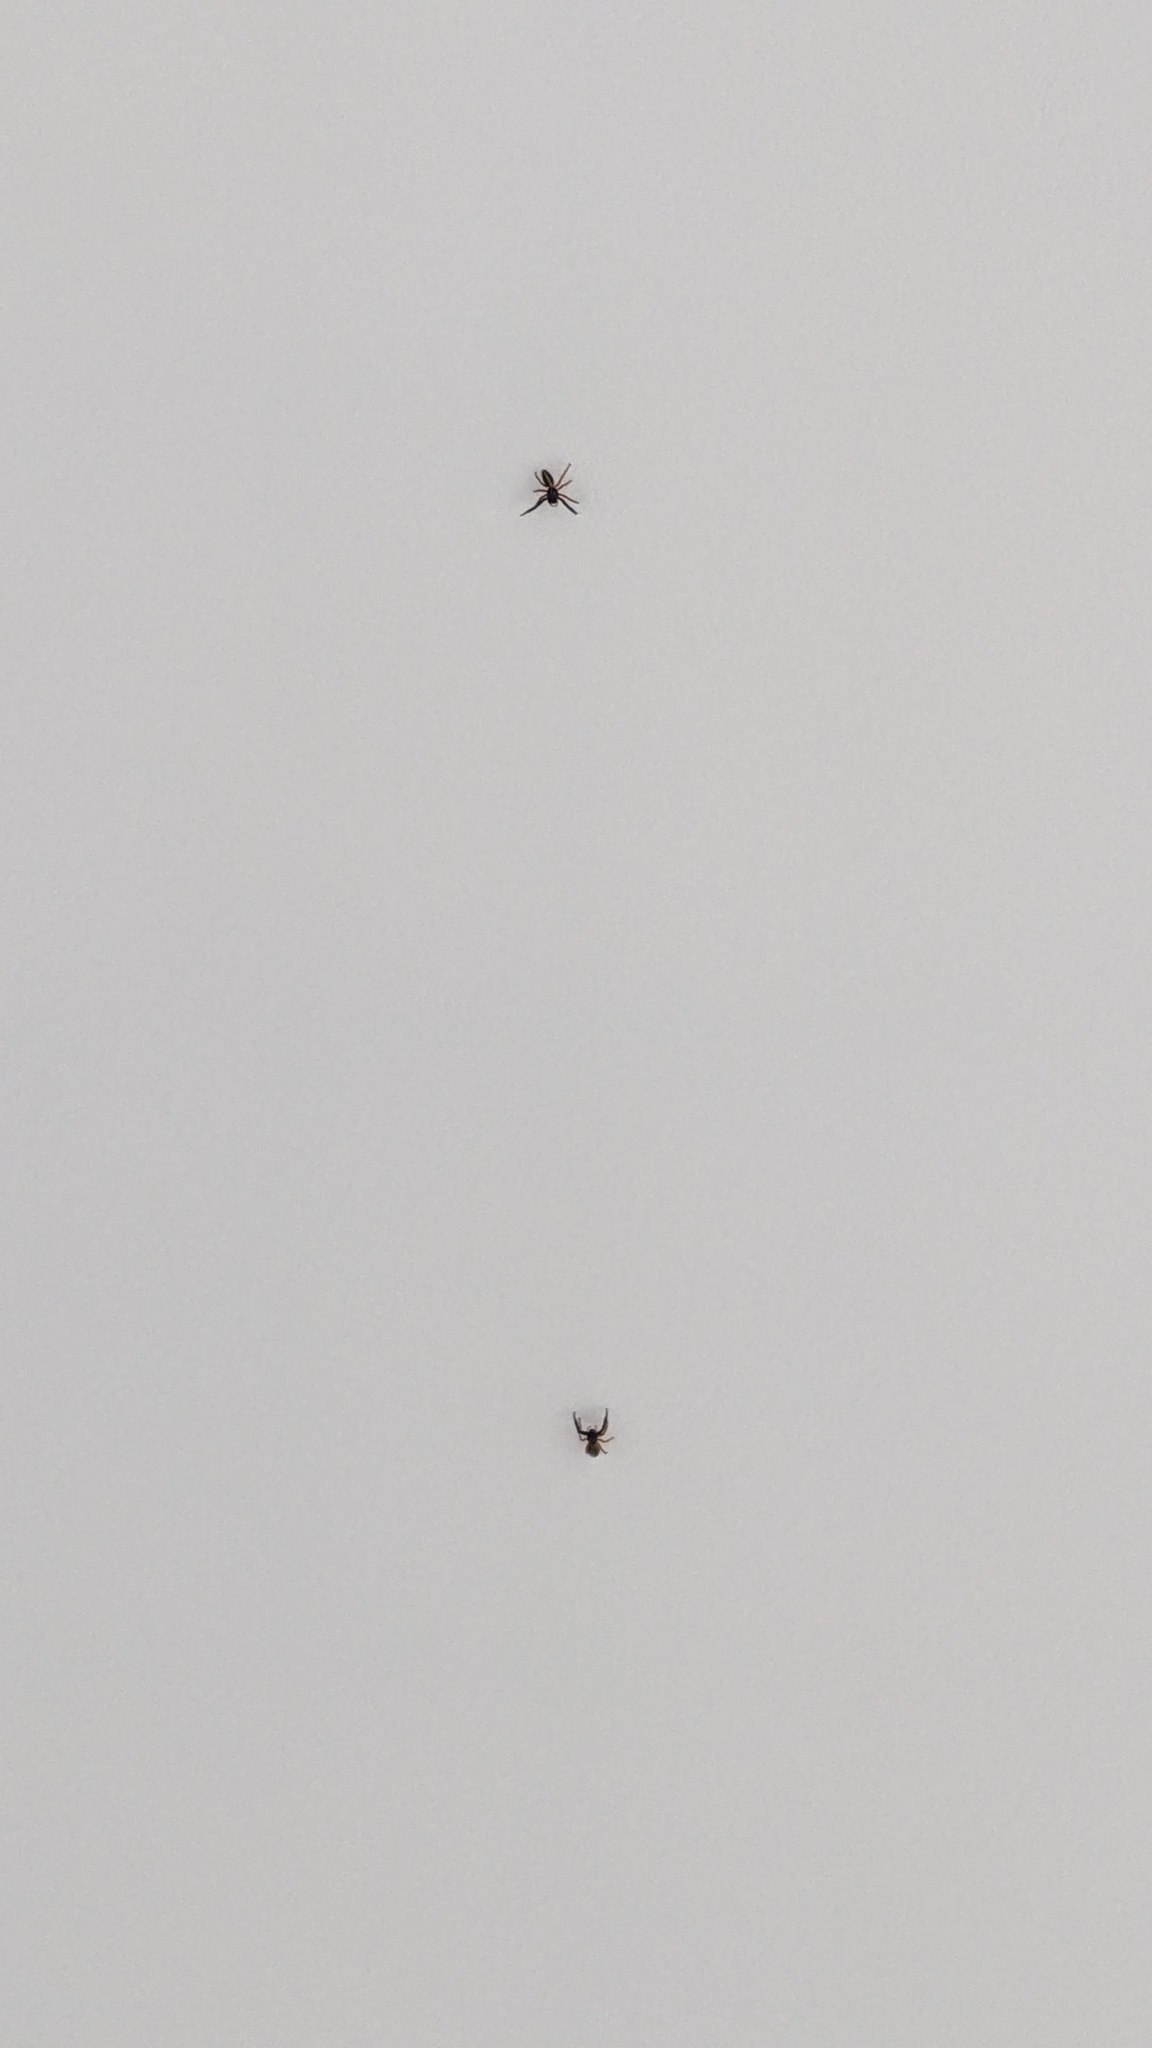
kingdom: Animalia
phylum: Arthropoda
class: Arachnida
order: Araneae
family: Salticidae
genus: Trite
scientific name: Trite planiceps
